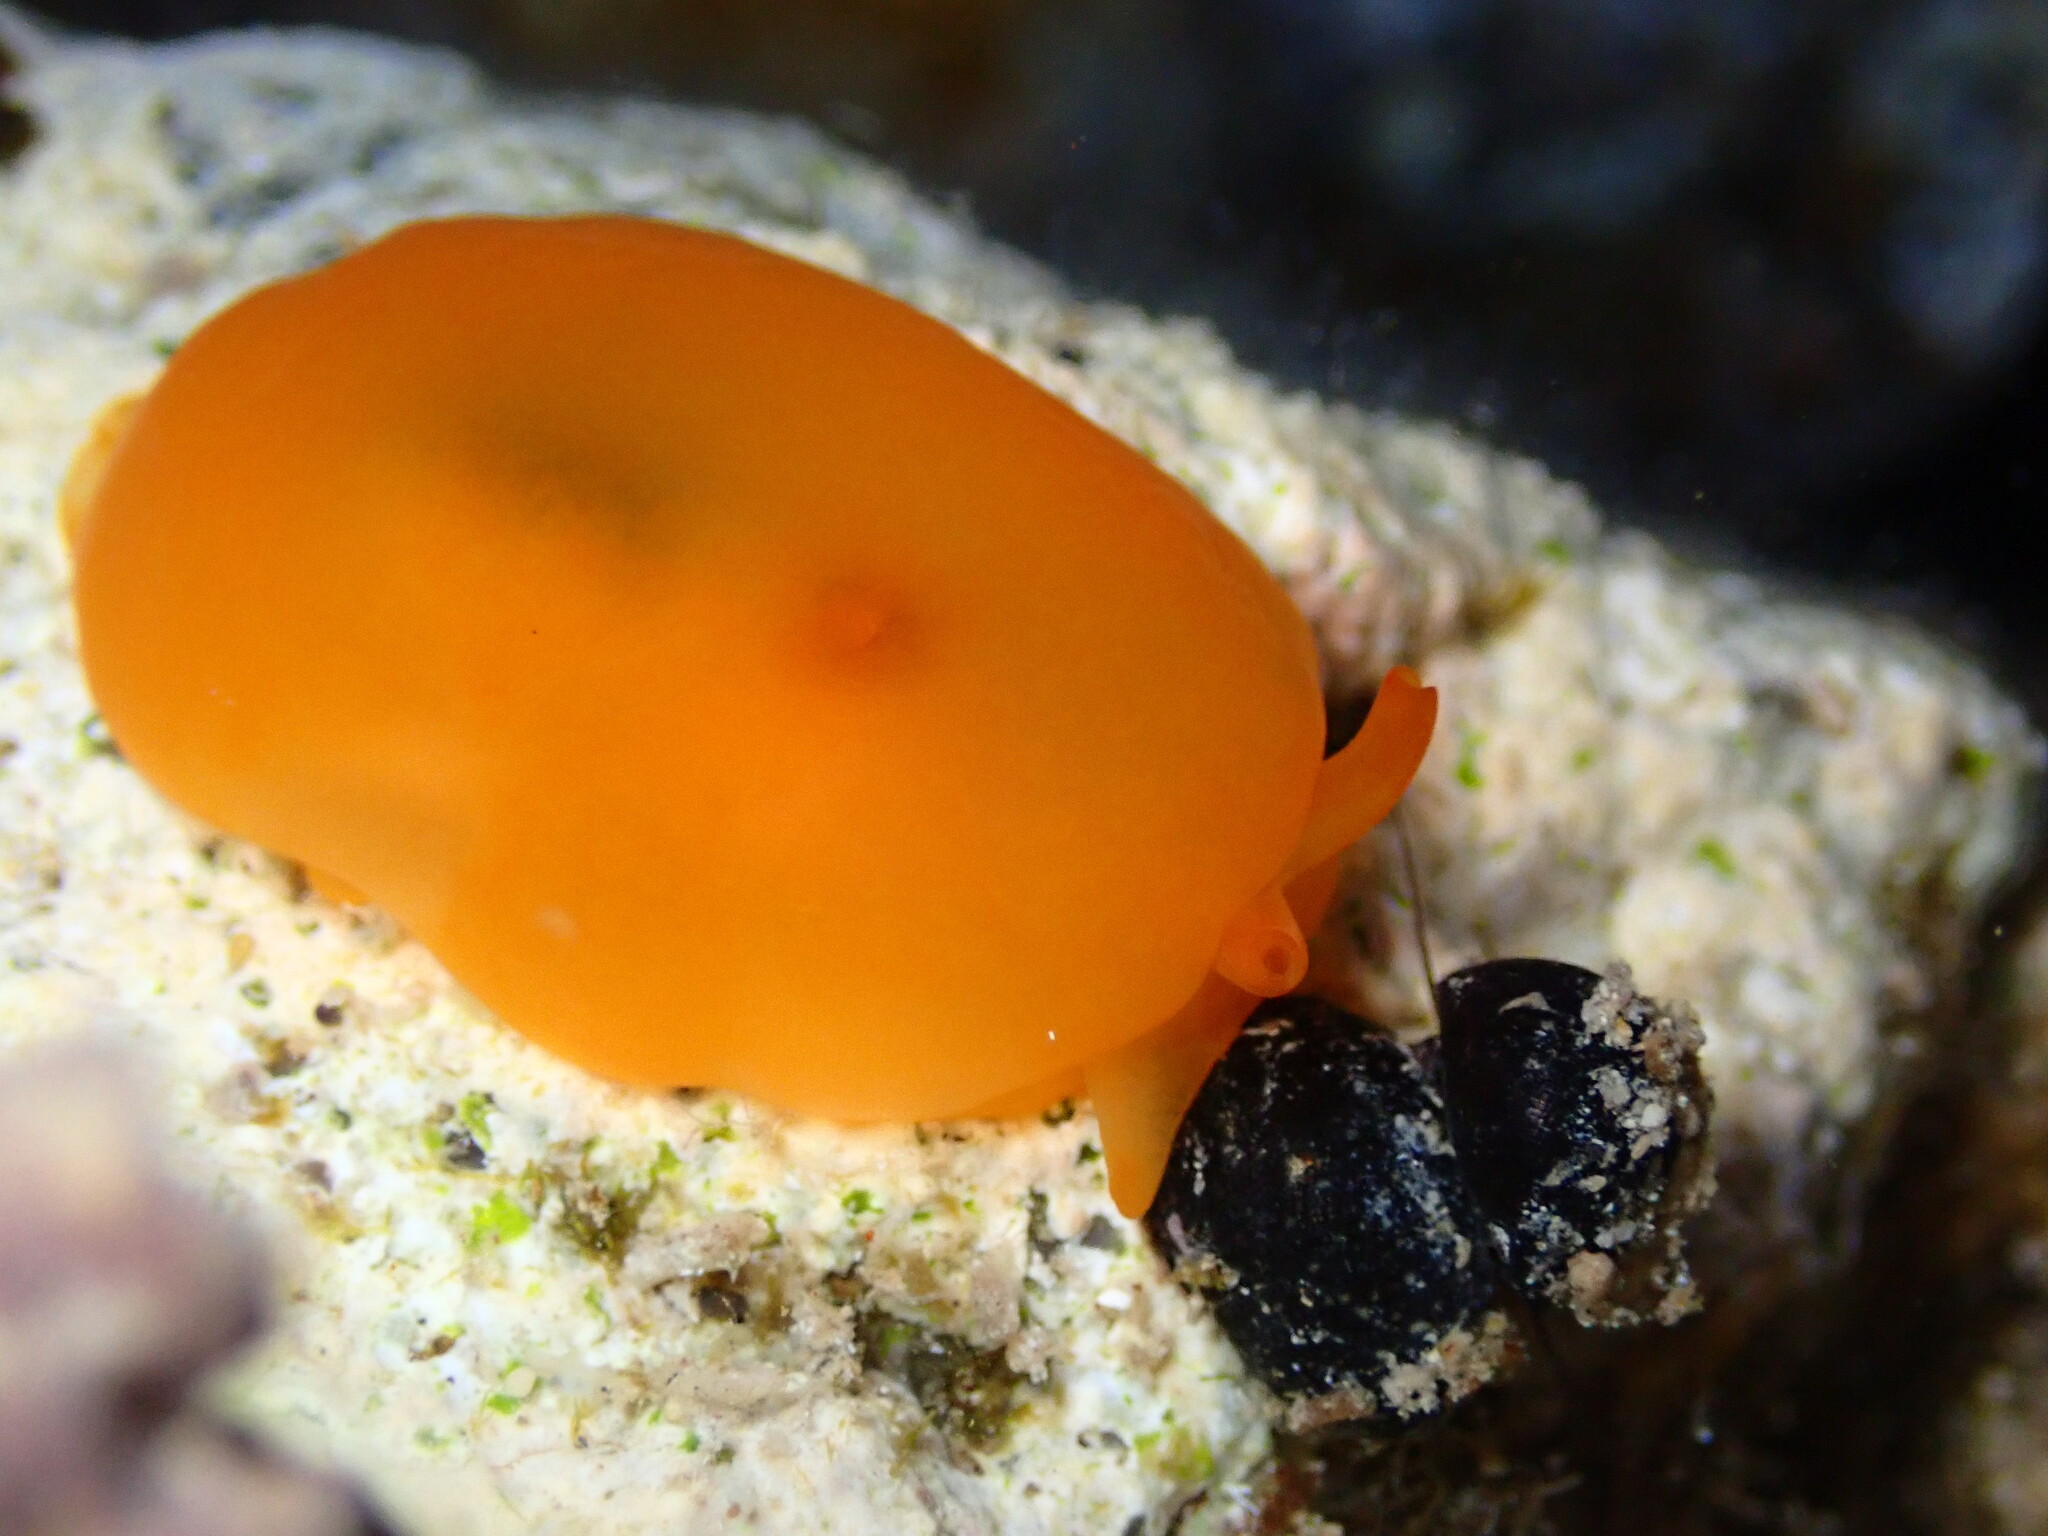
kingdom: Animalia
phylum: Mollusca
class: Gastropoda
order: Pleurobranchida
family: Pleurobranchidae
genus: Berthellina
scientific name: Berthellina delicata
